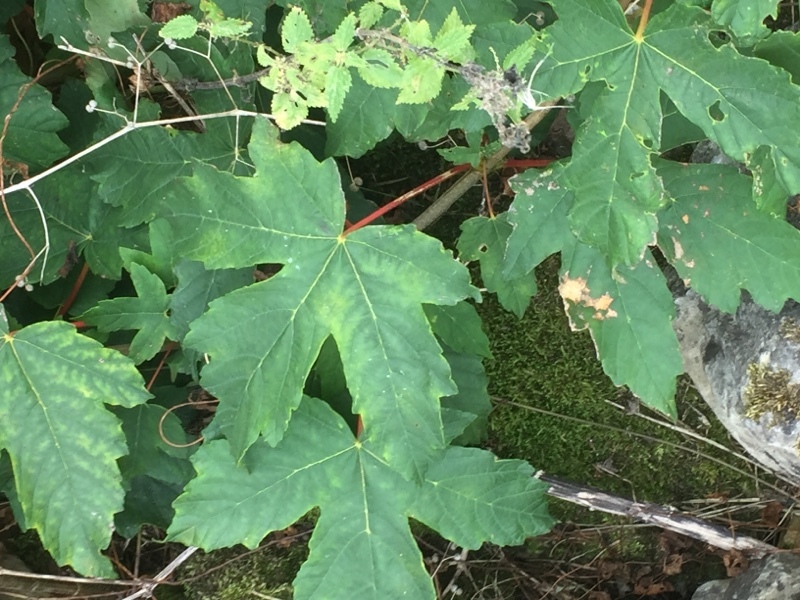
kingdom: Plantae
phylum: Tracheophyta
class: Magnoliopsida
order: Sapindales
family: Sapindaceae
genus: Acer
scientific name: Acer pseudoplatanus
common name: Sycamore
